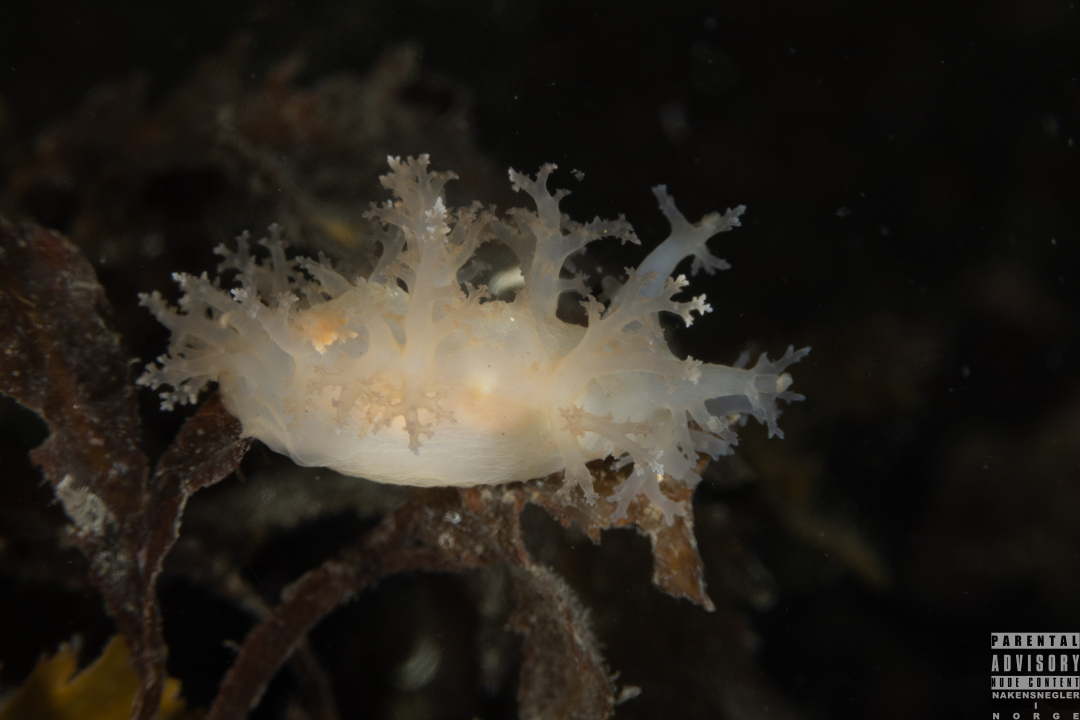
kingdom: Animalia
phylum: Mollusca
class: Gastropoda
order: Nudibranchia
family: Dendronotidae
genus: Dendronotus
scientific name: Dendronotus lacteus
